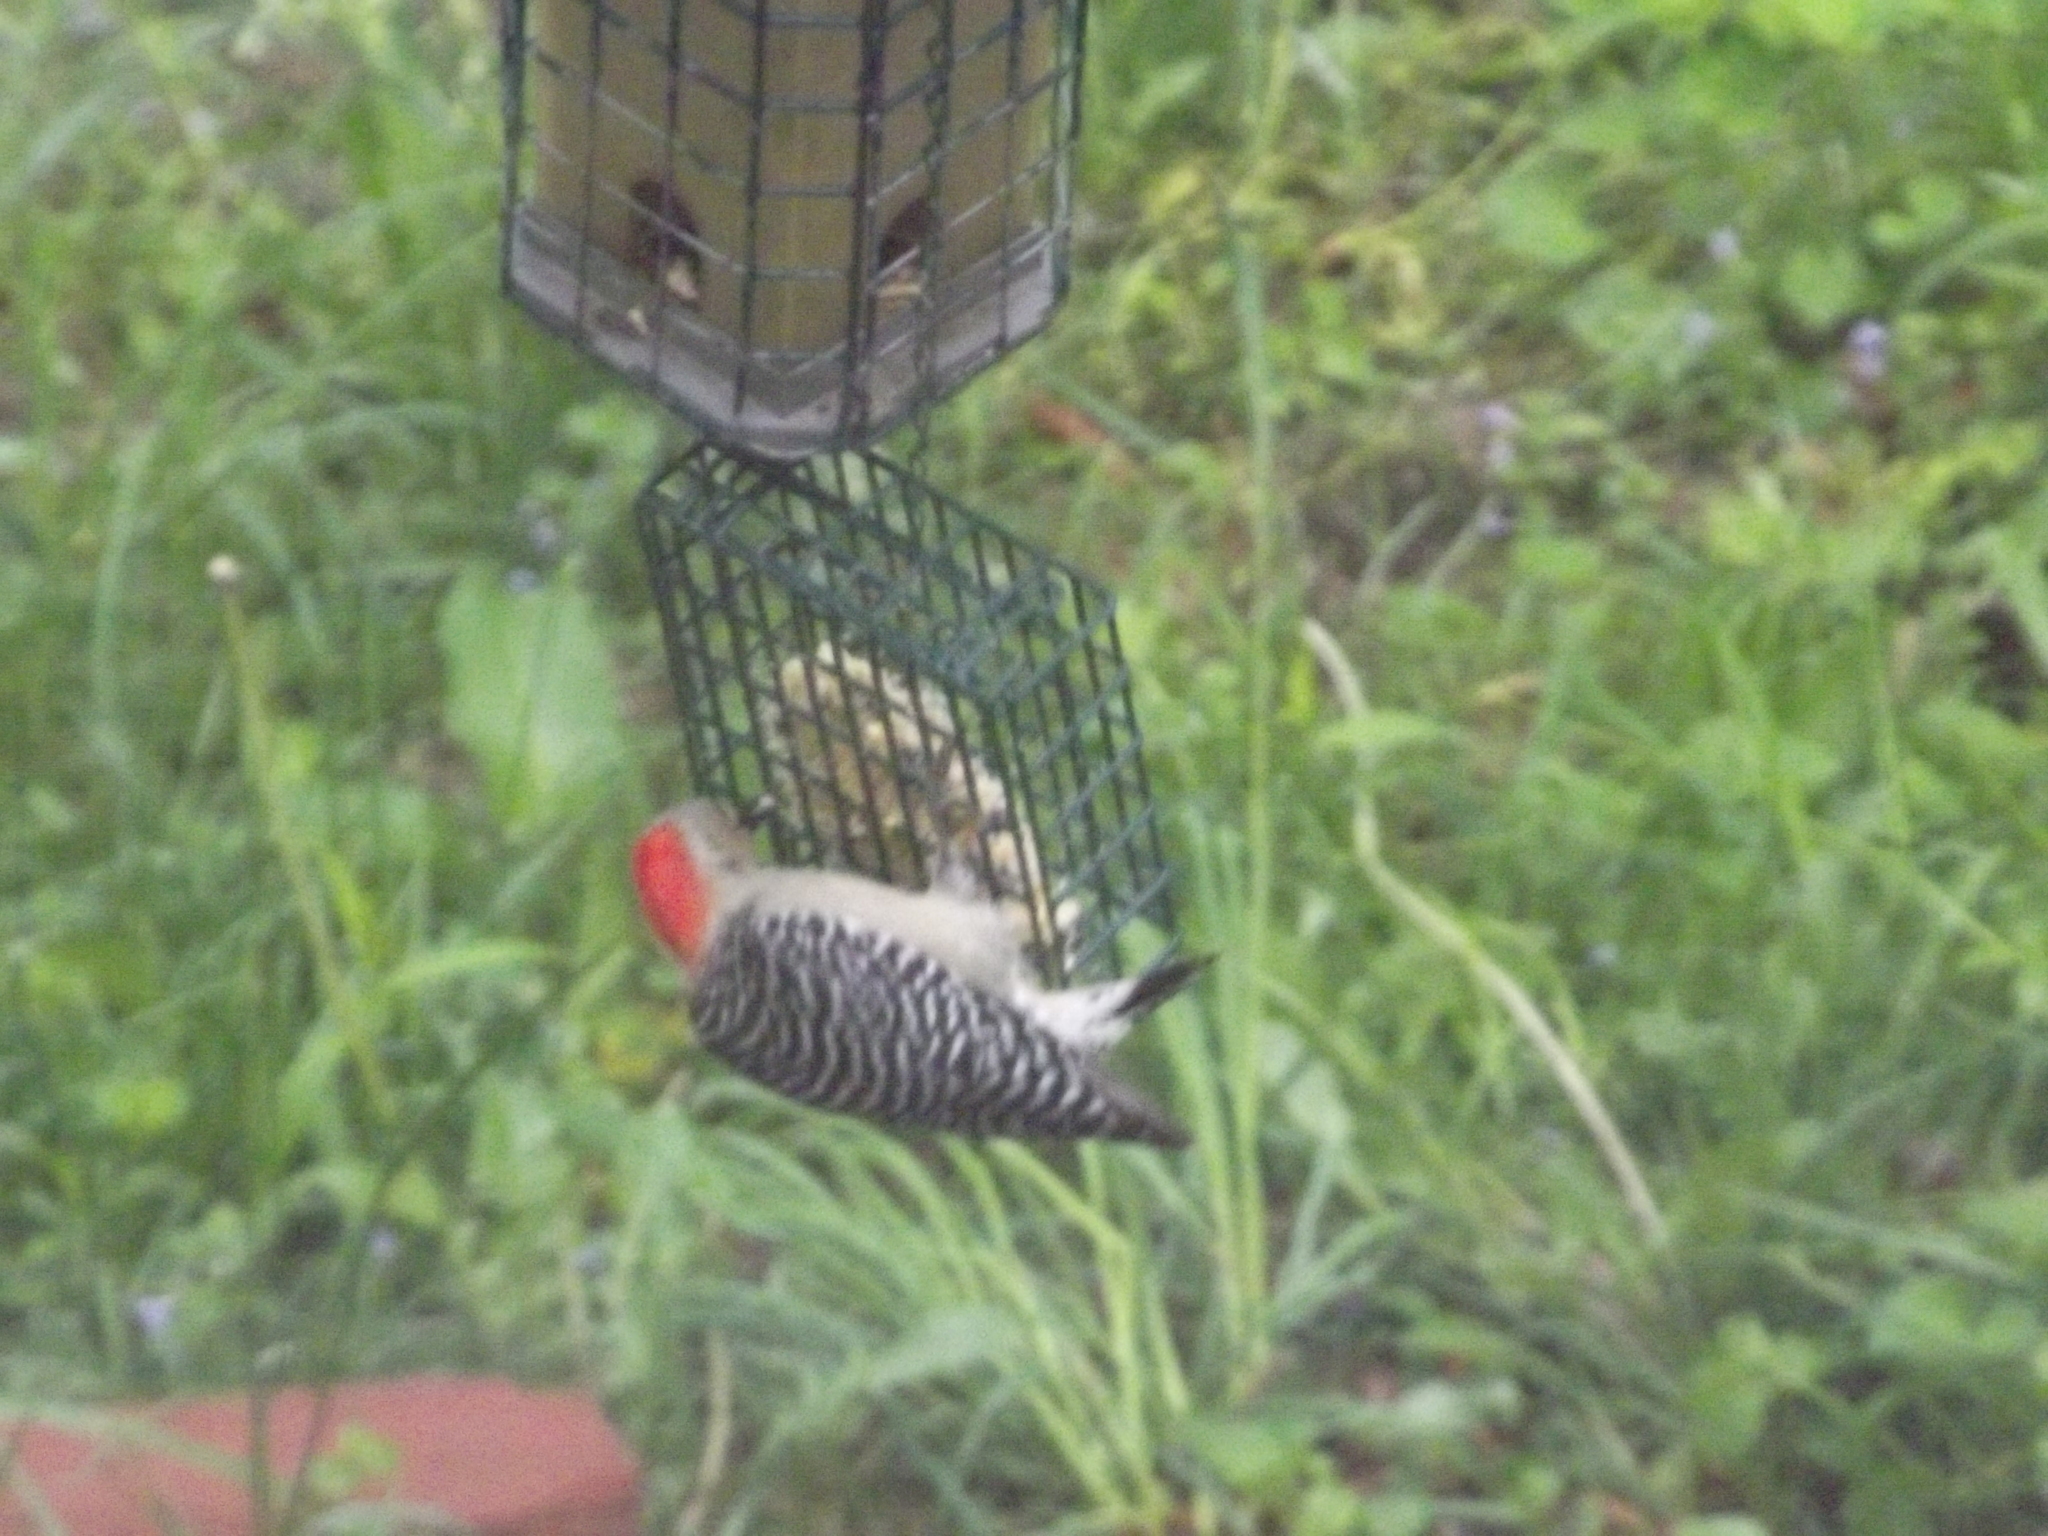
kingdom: Animalia
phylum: Chordata
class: Aves
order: Piciformes
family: Picidae
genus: Melanerpes
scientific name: Melanerpes carolinus
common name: Red-bellied woodpecker
